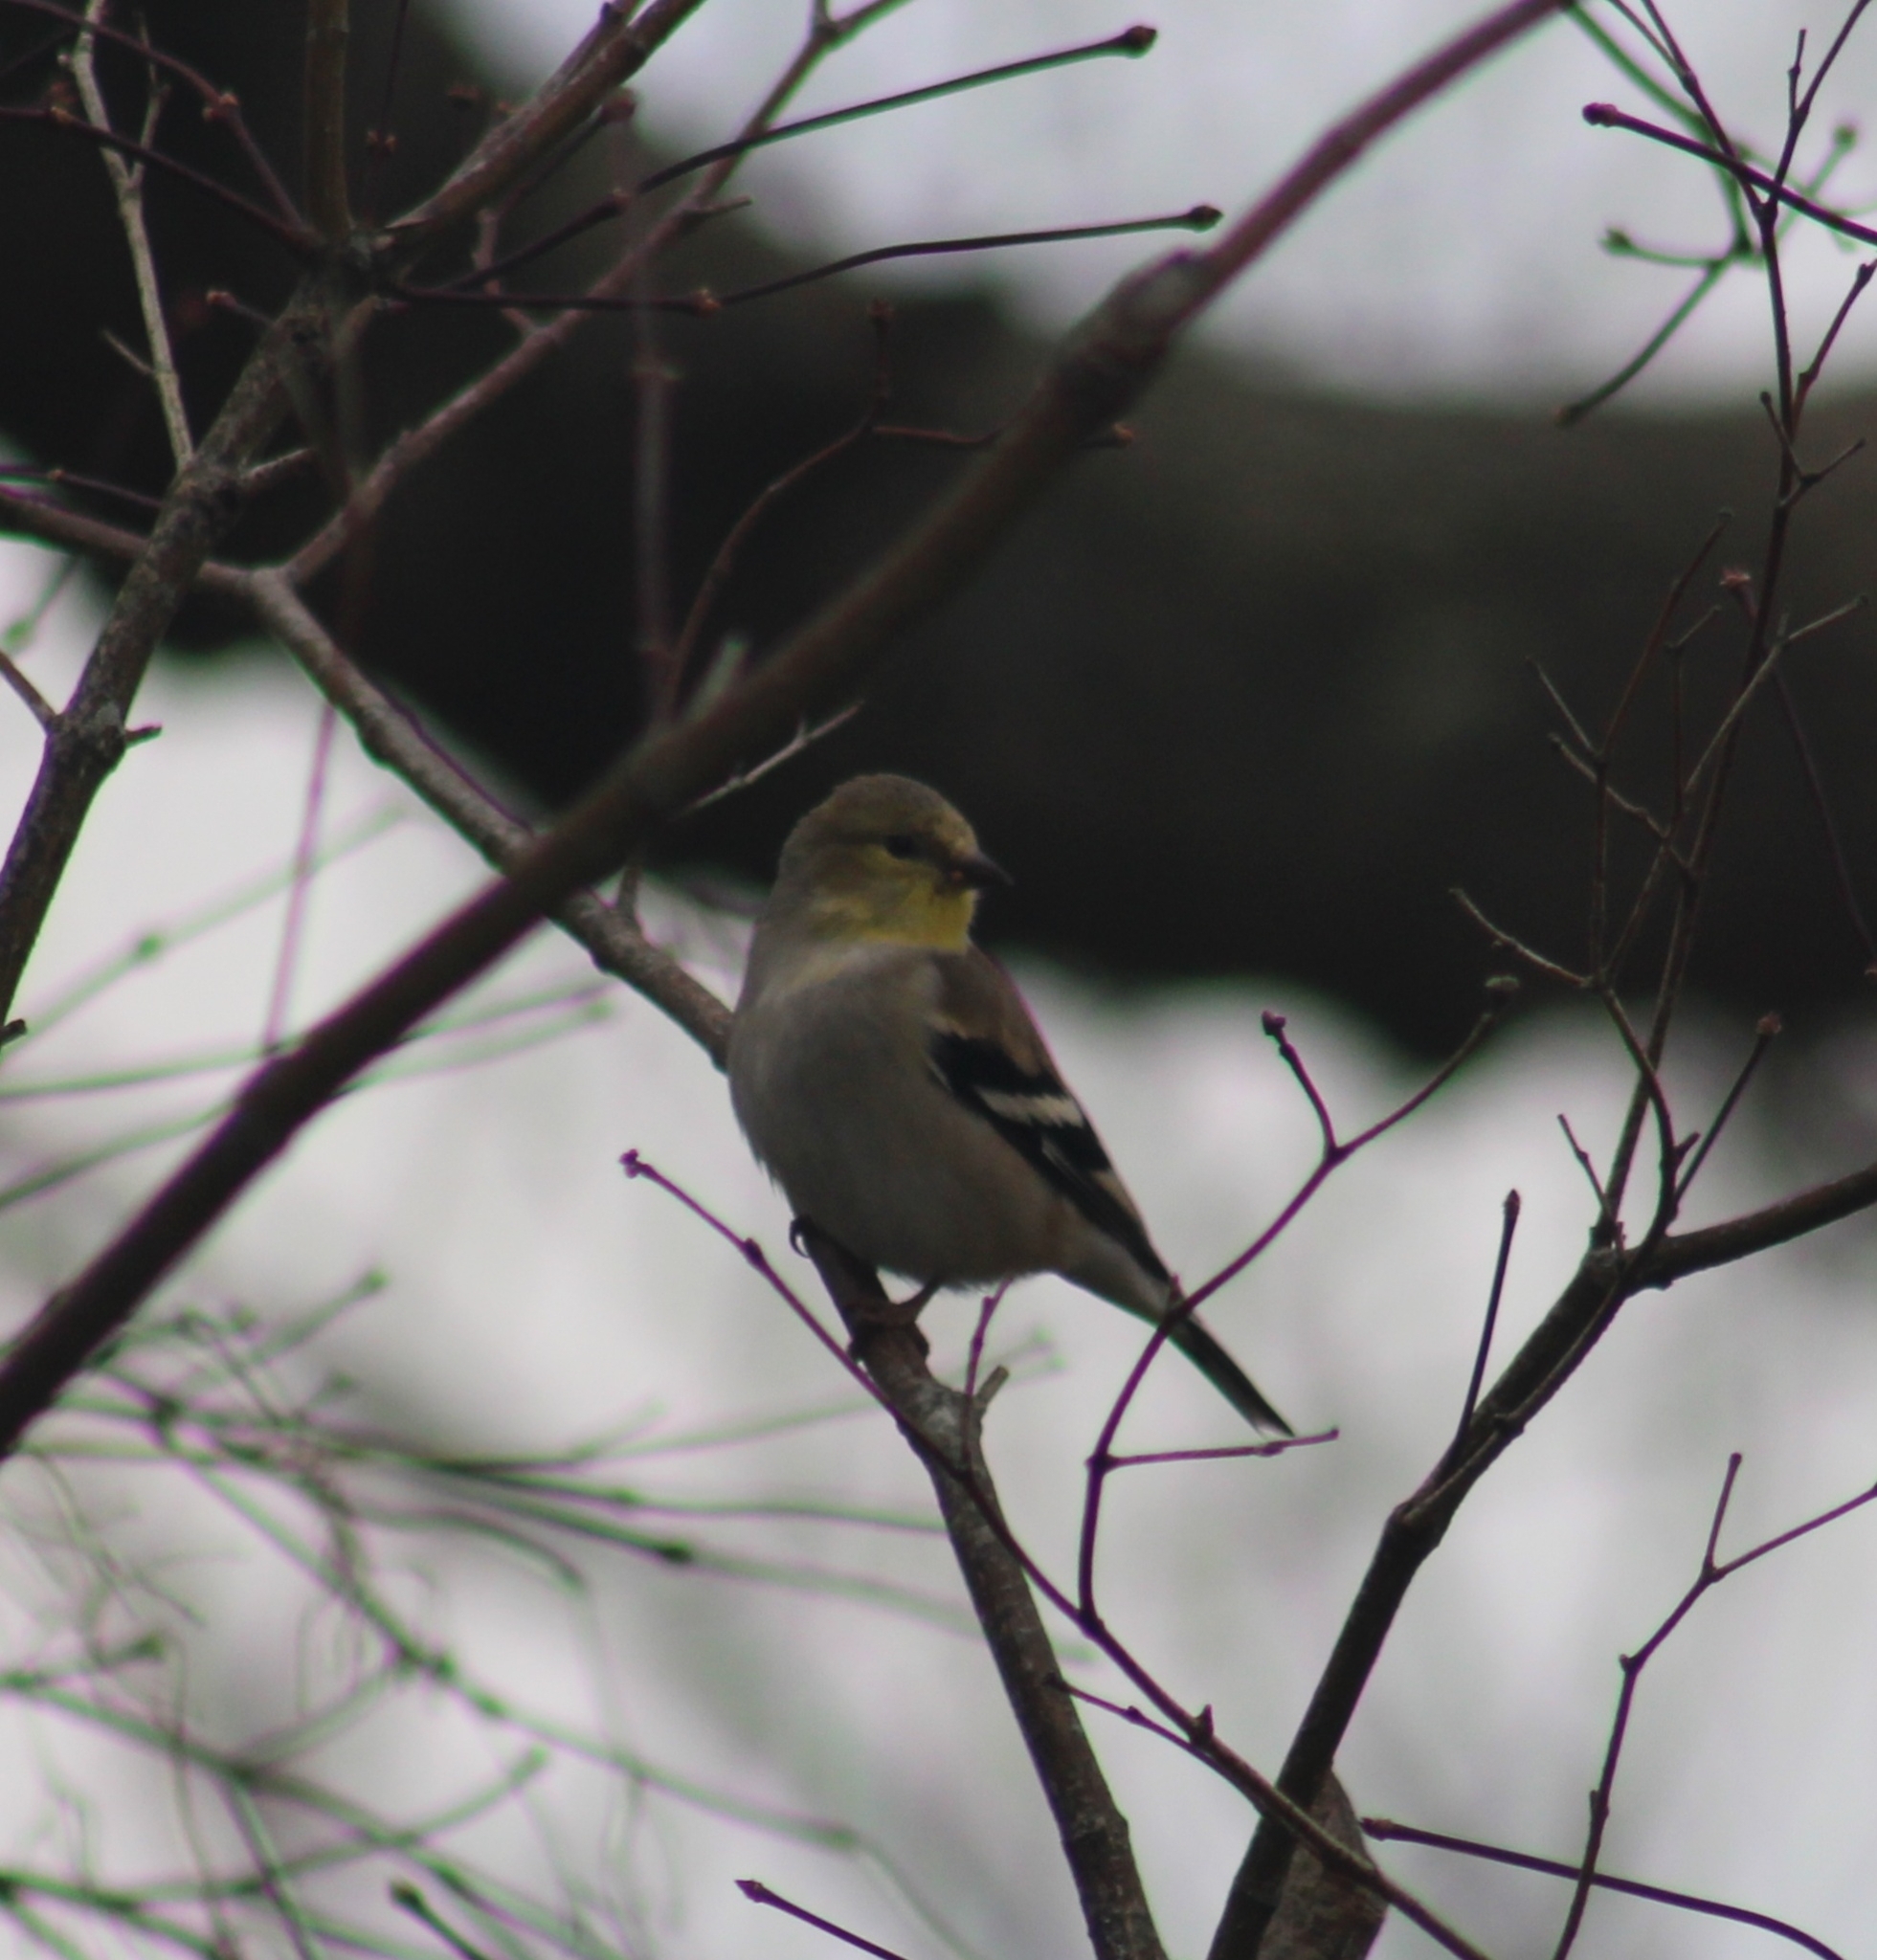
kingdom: Animalia
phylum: Chordata
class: Aves
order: Passeriformes
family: Fringillidae
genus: Spinus
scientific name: Spinus tristis
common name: American goldfinch
